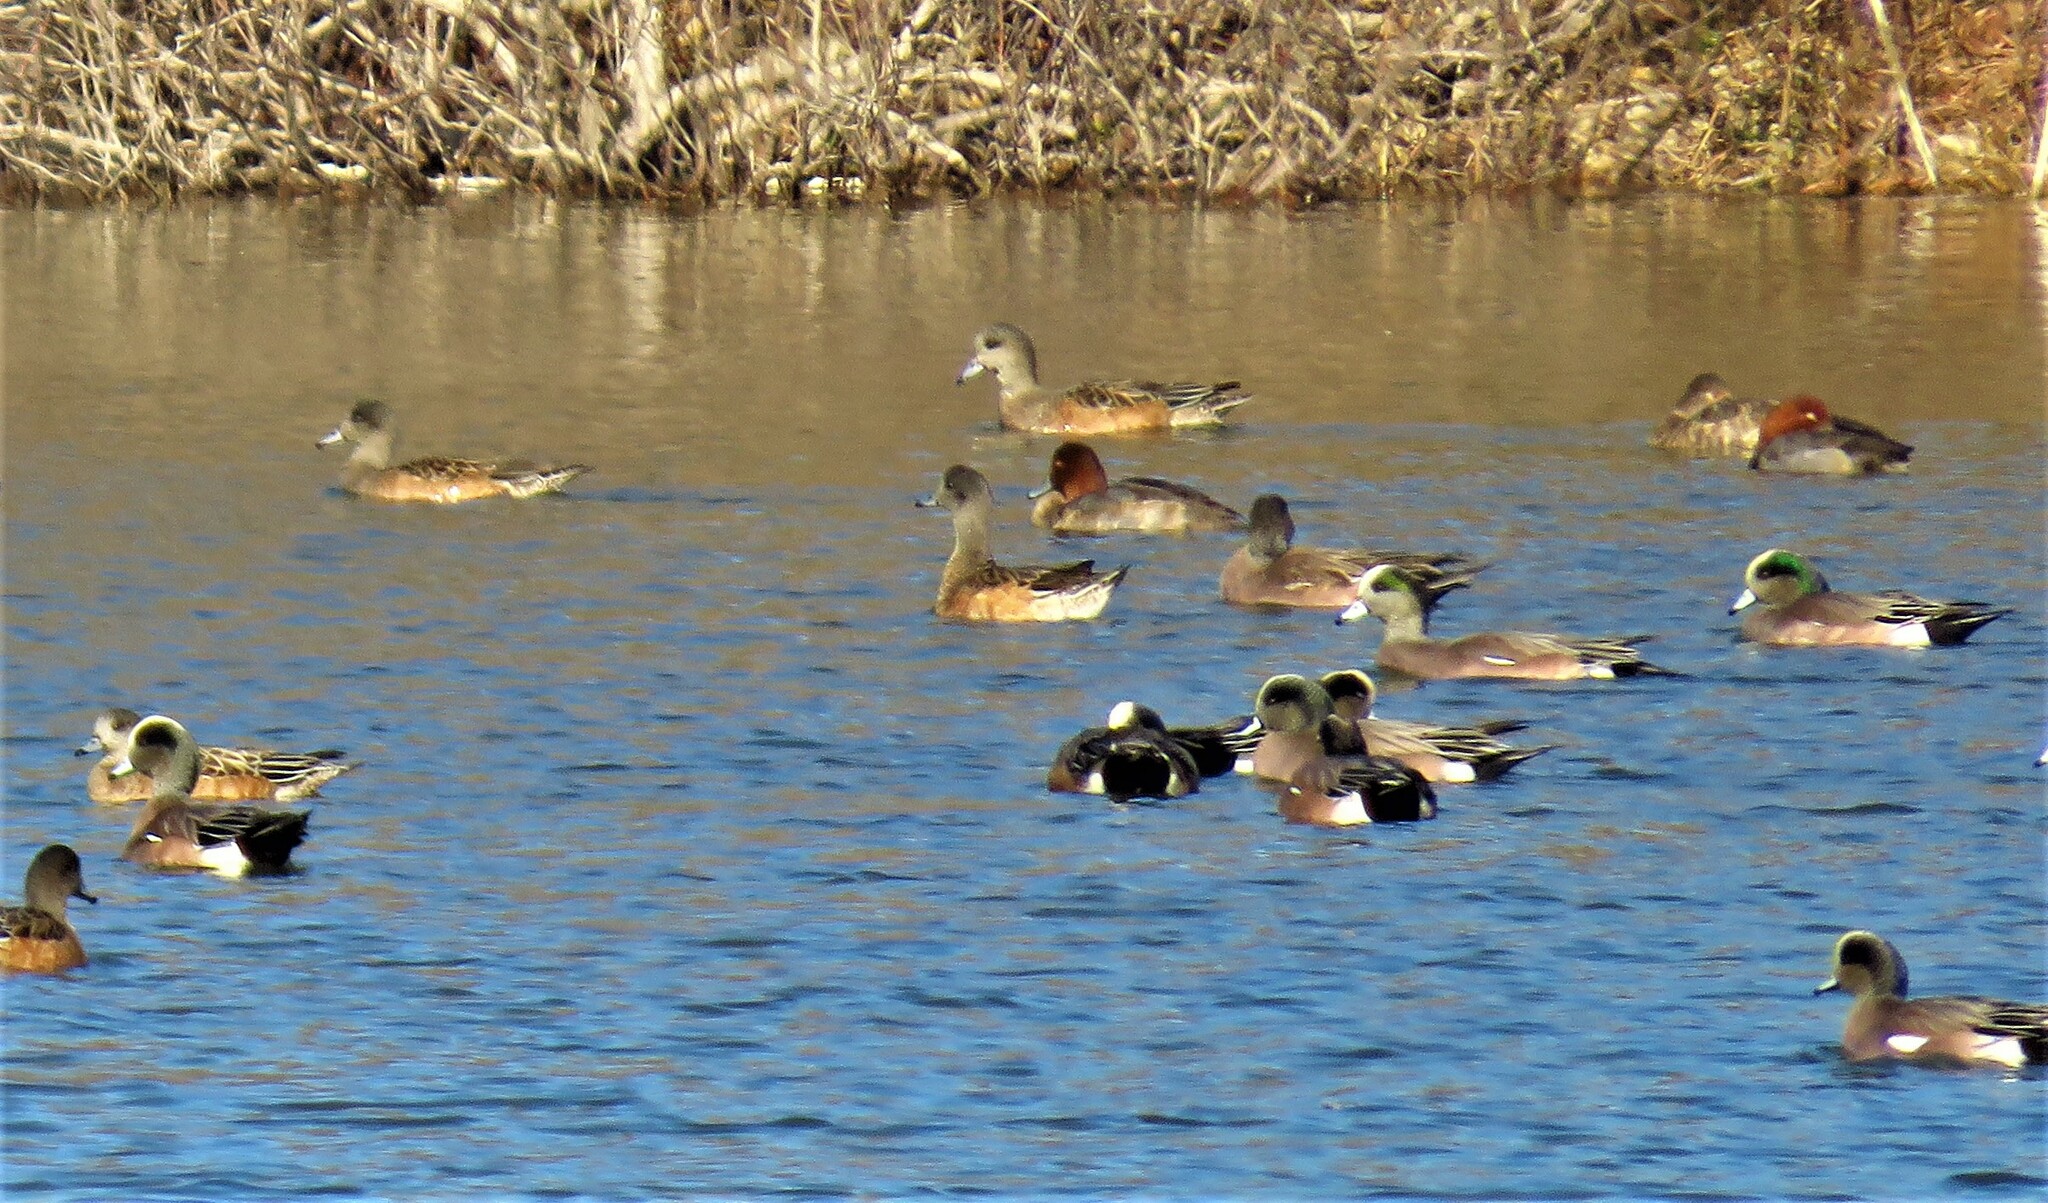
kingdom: Animalia
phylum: Chordata
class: Aves
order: Anseriformes
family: Anatidae
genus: Mareca
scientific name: Mareca americana
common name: American wigeon
